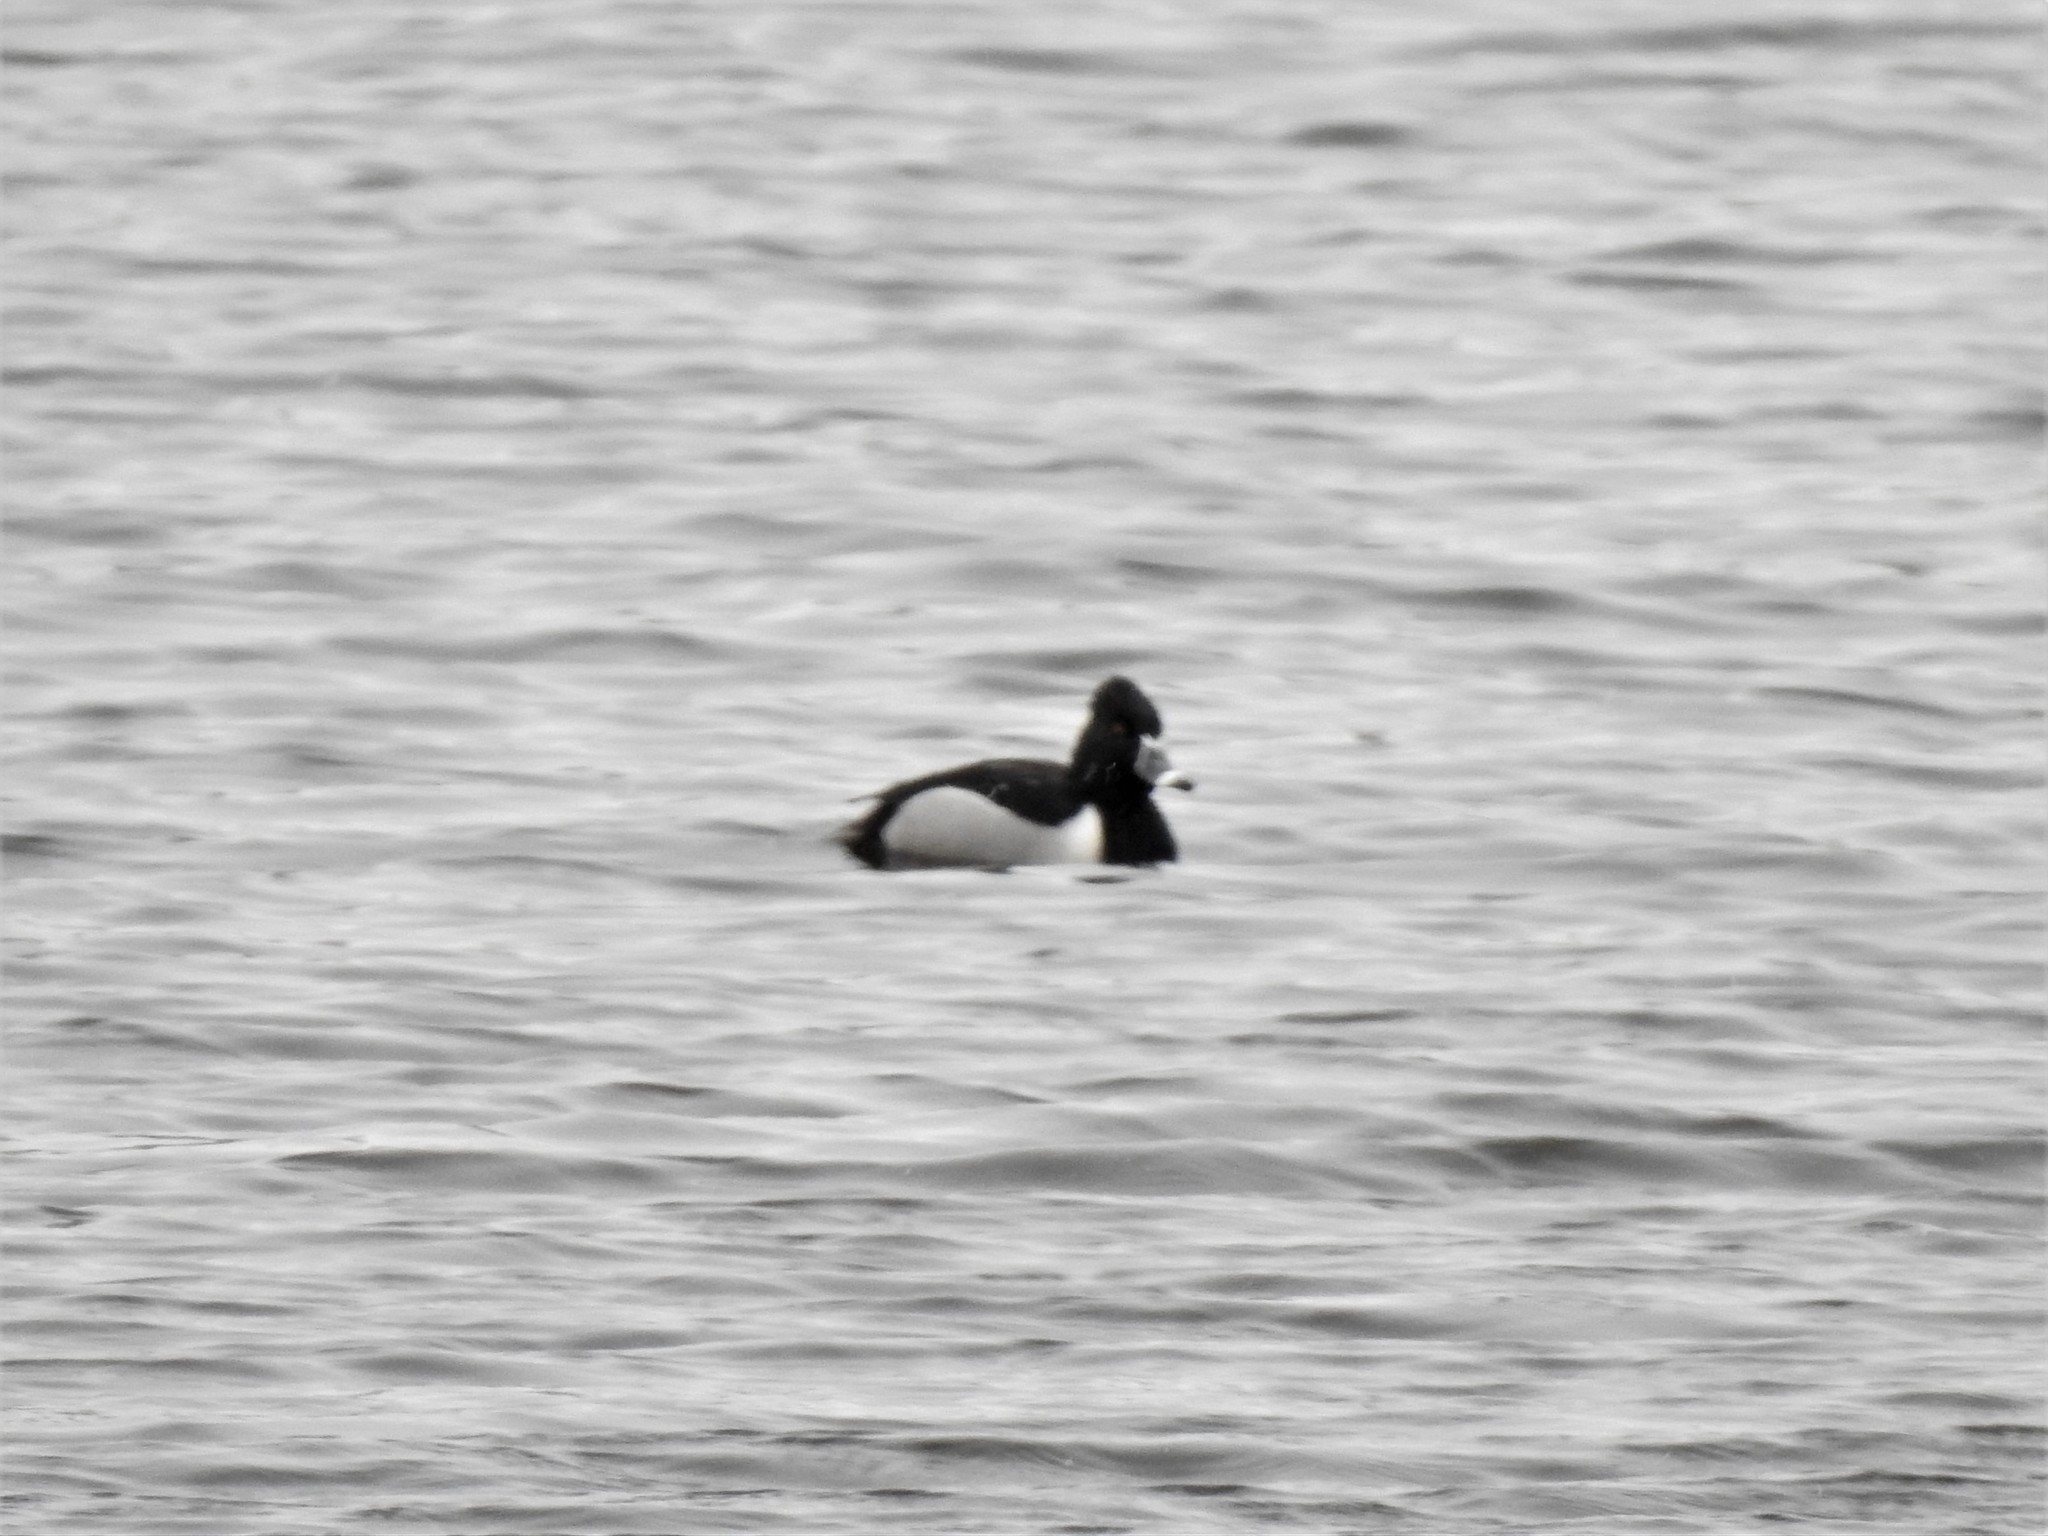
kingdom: Animalia
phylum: Chordata
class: Aves
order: Anseriformes
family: Anatidae
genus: Aythya
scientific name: Aythya collaris
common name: Ring-necked duck
